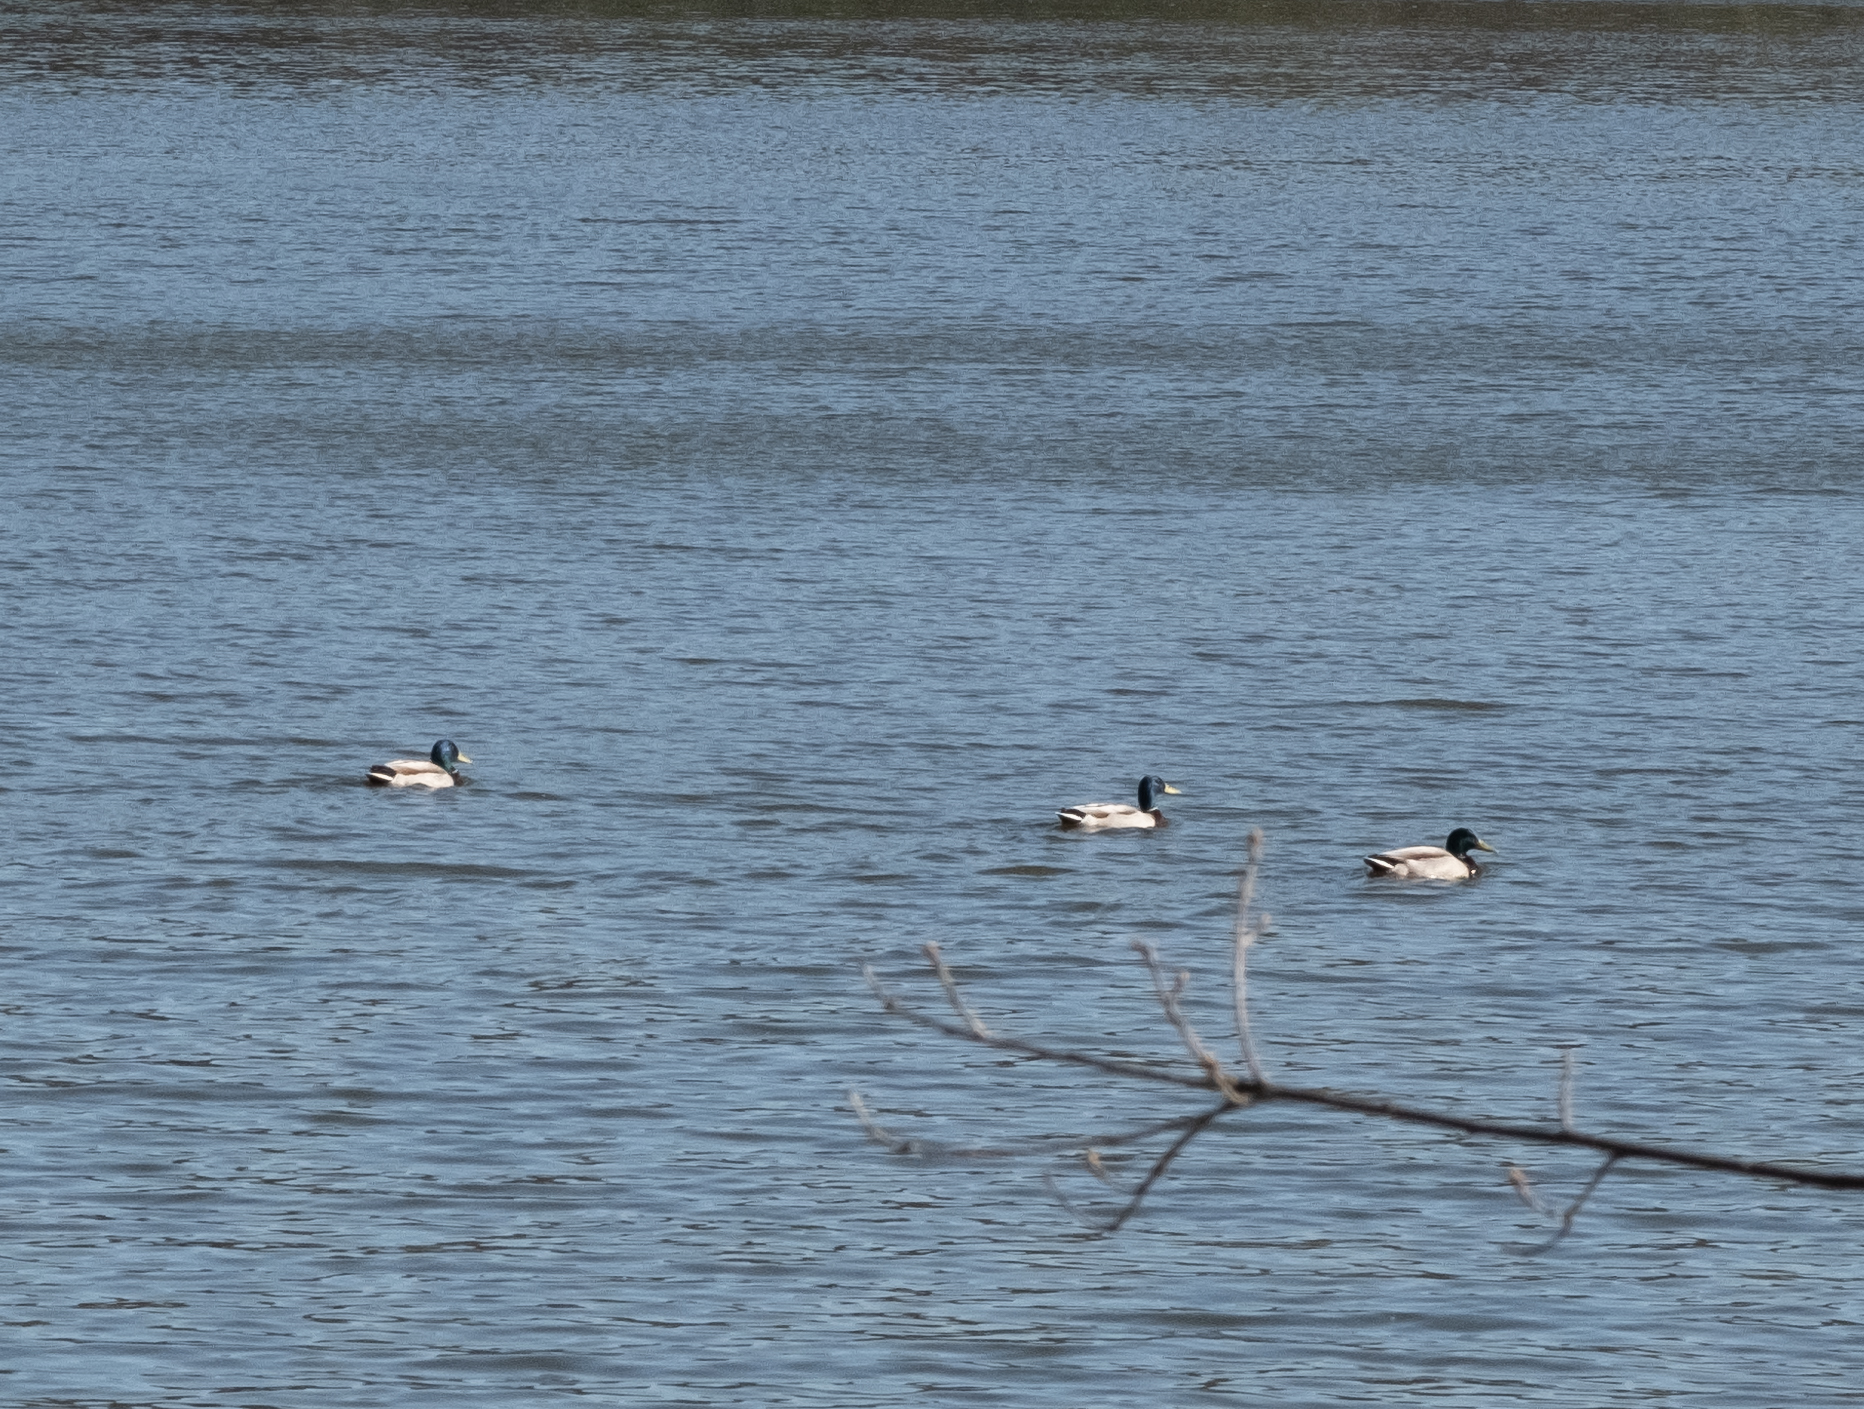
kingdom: Animalia
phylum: Chordata
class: Aves
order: Anseriformes
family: Anatidae
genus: Anas
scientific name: Anas platyrhynchos
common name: Mallard
